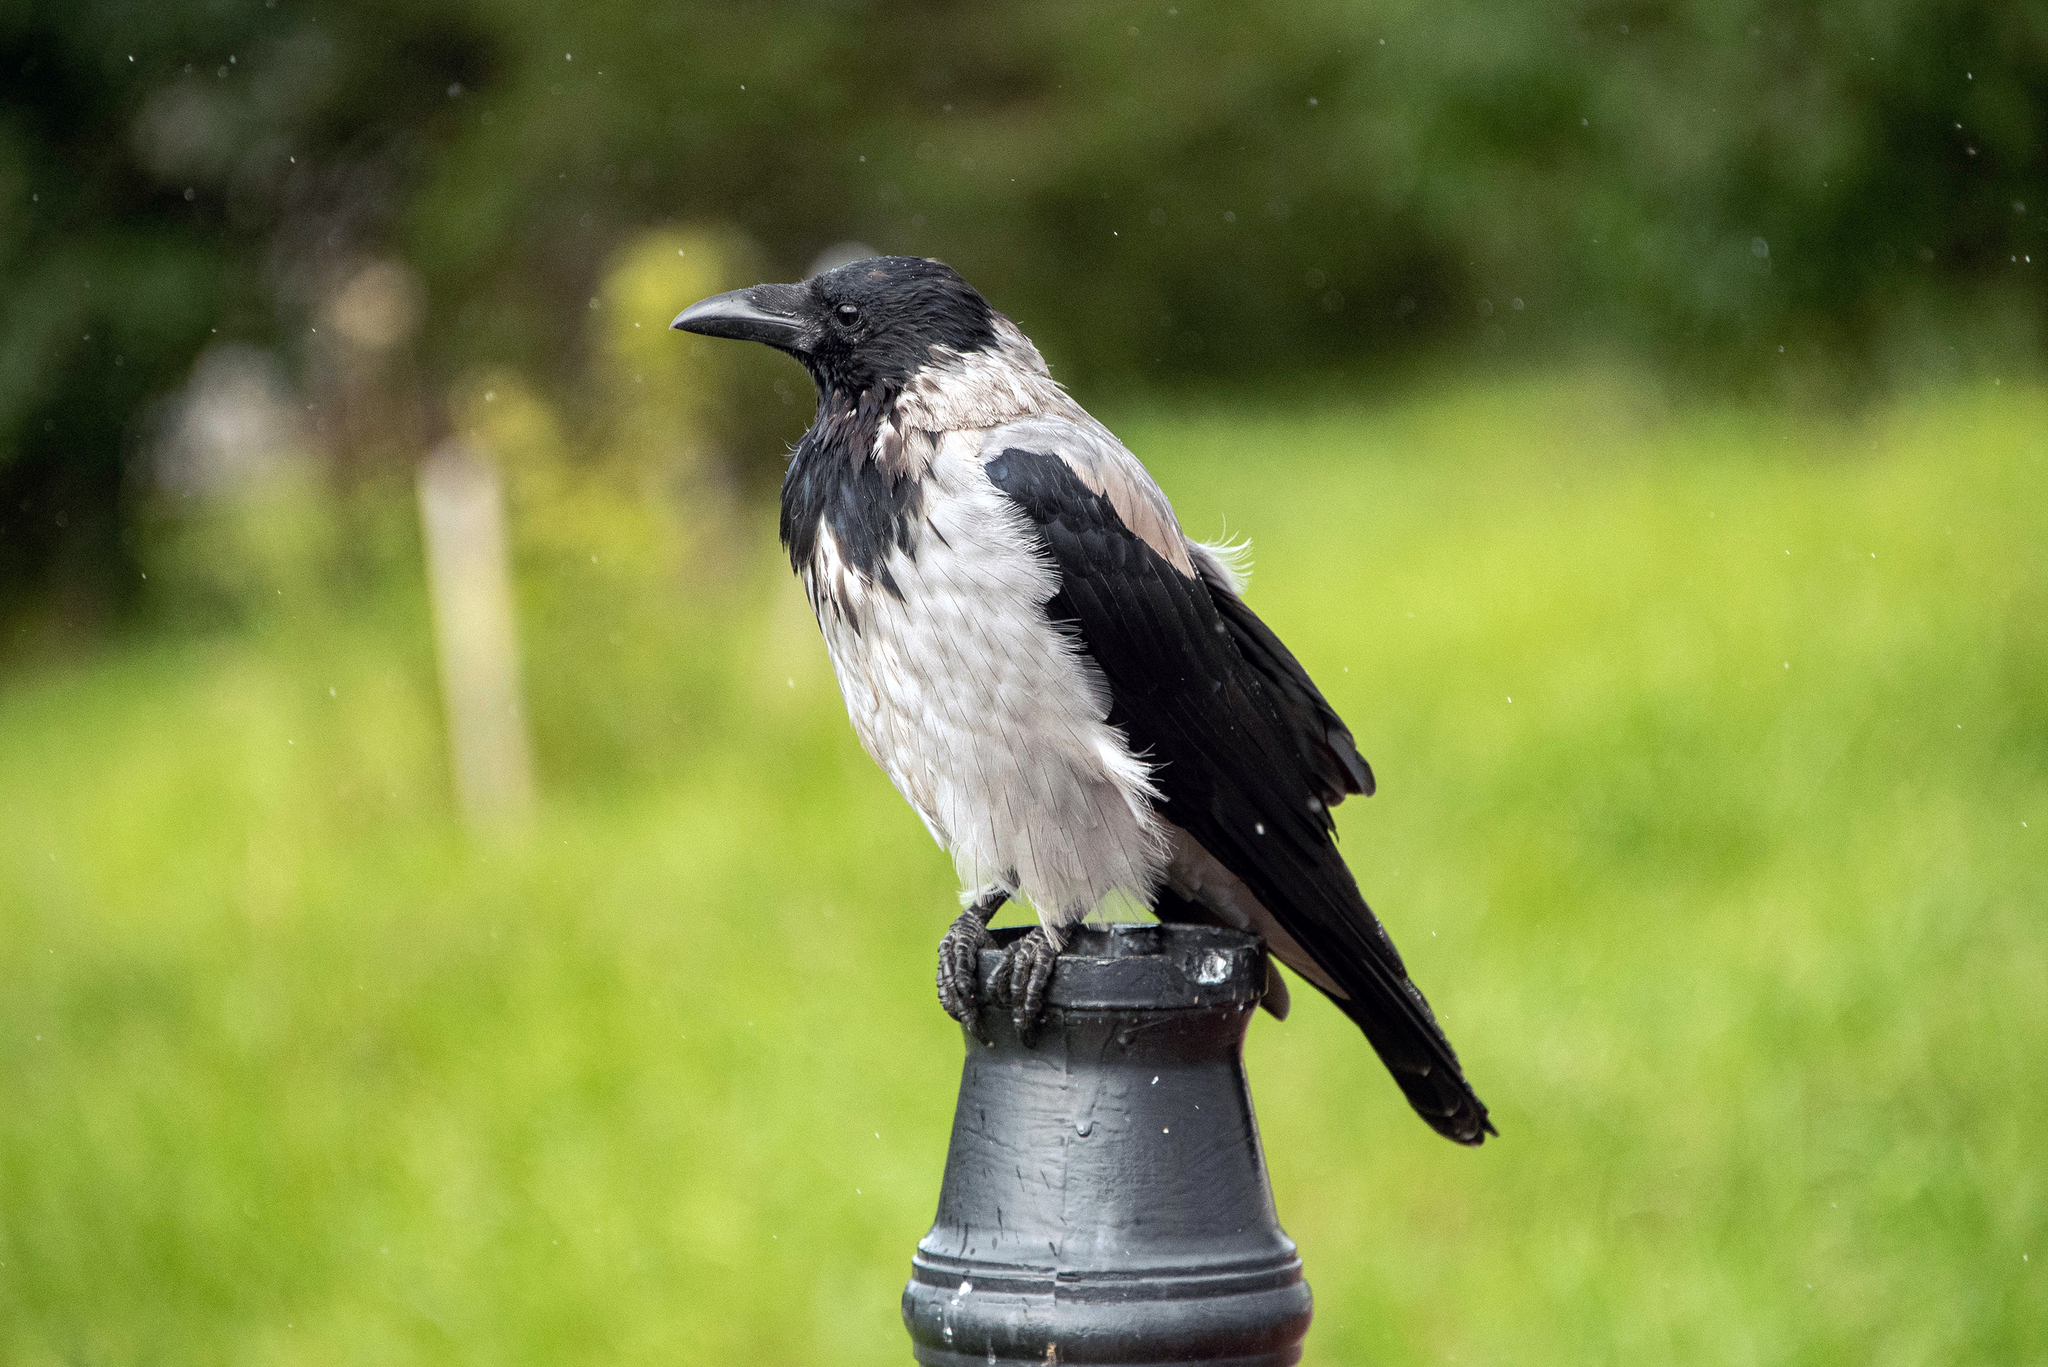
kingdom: Animalia
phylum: Chordata
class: Aves
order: Passeriformes
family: Corvidae
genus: Corvus
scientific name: Corvus cornix
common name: Hooded crow
